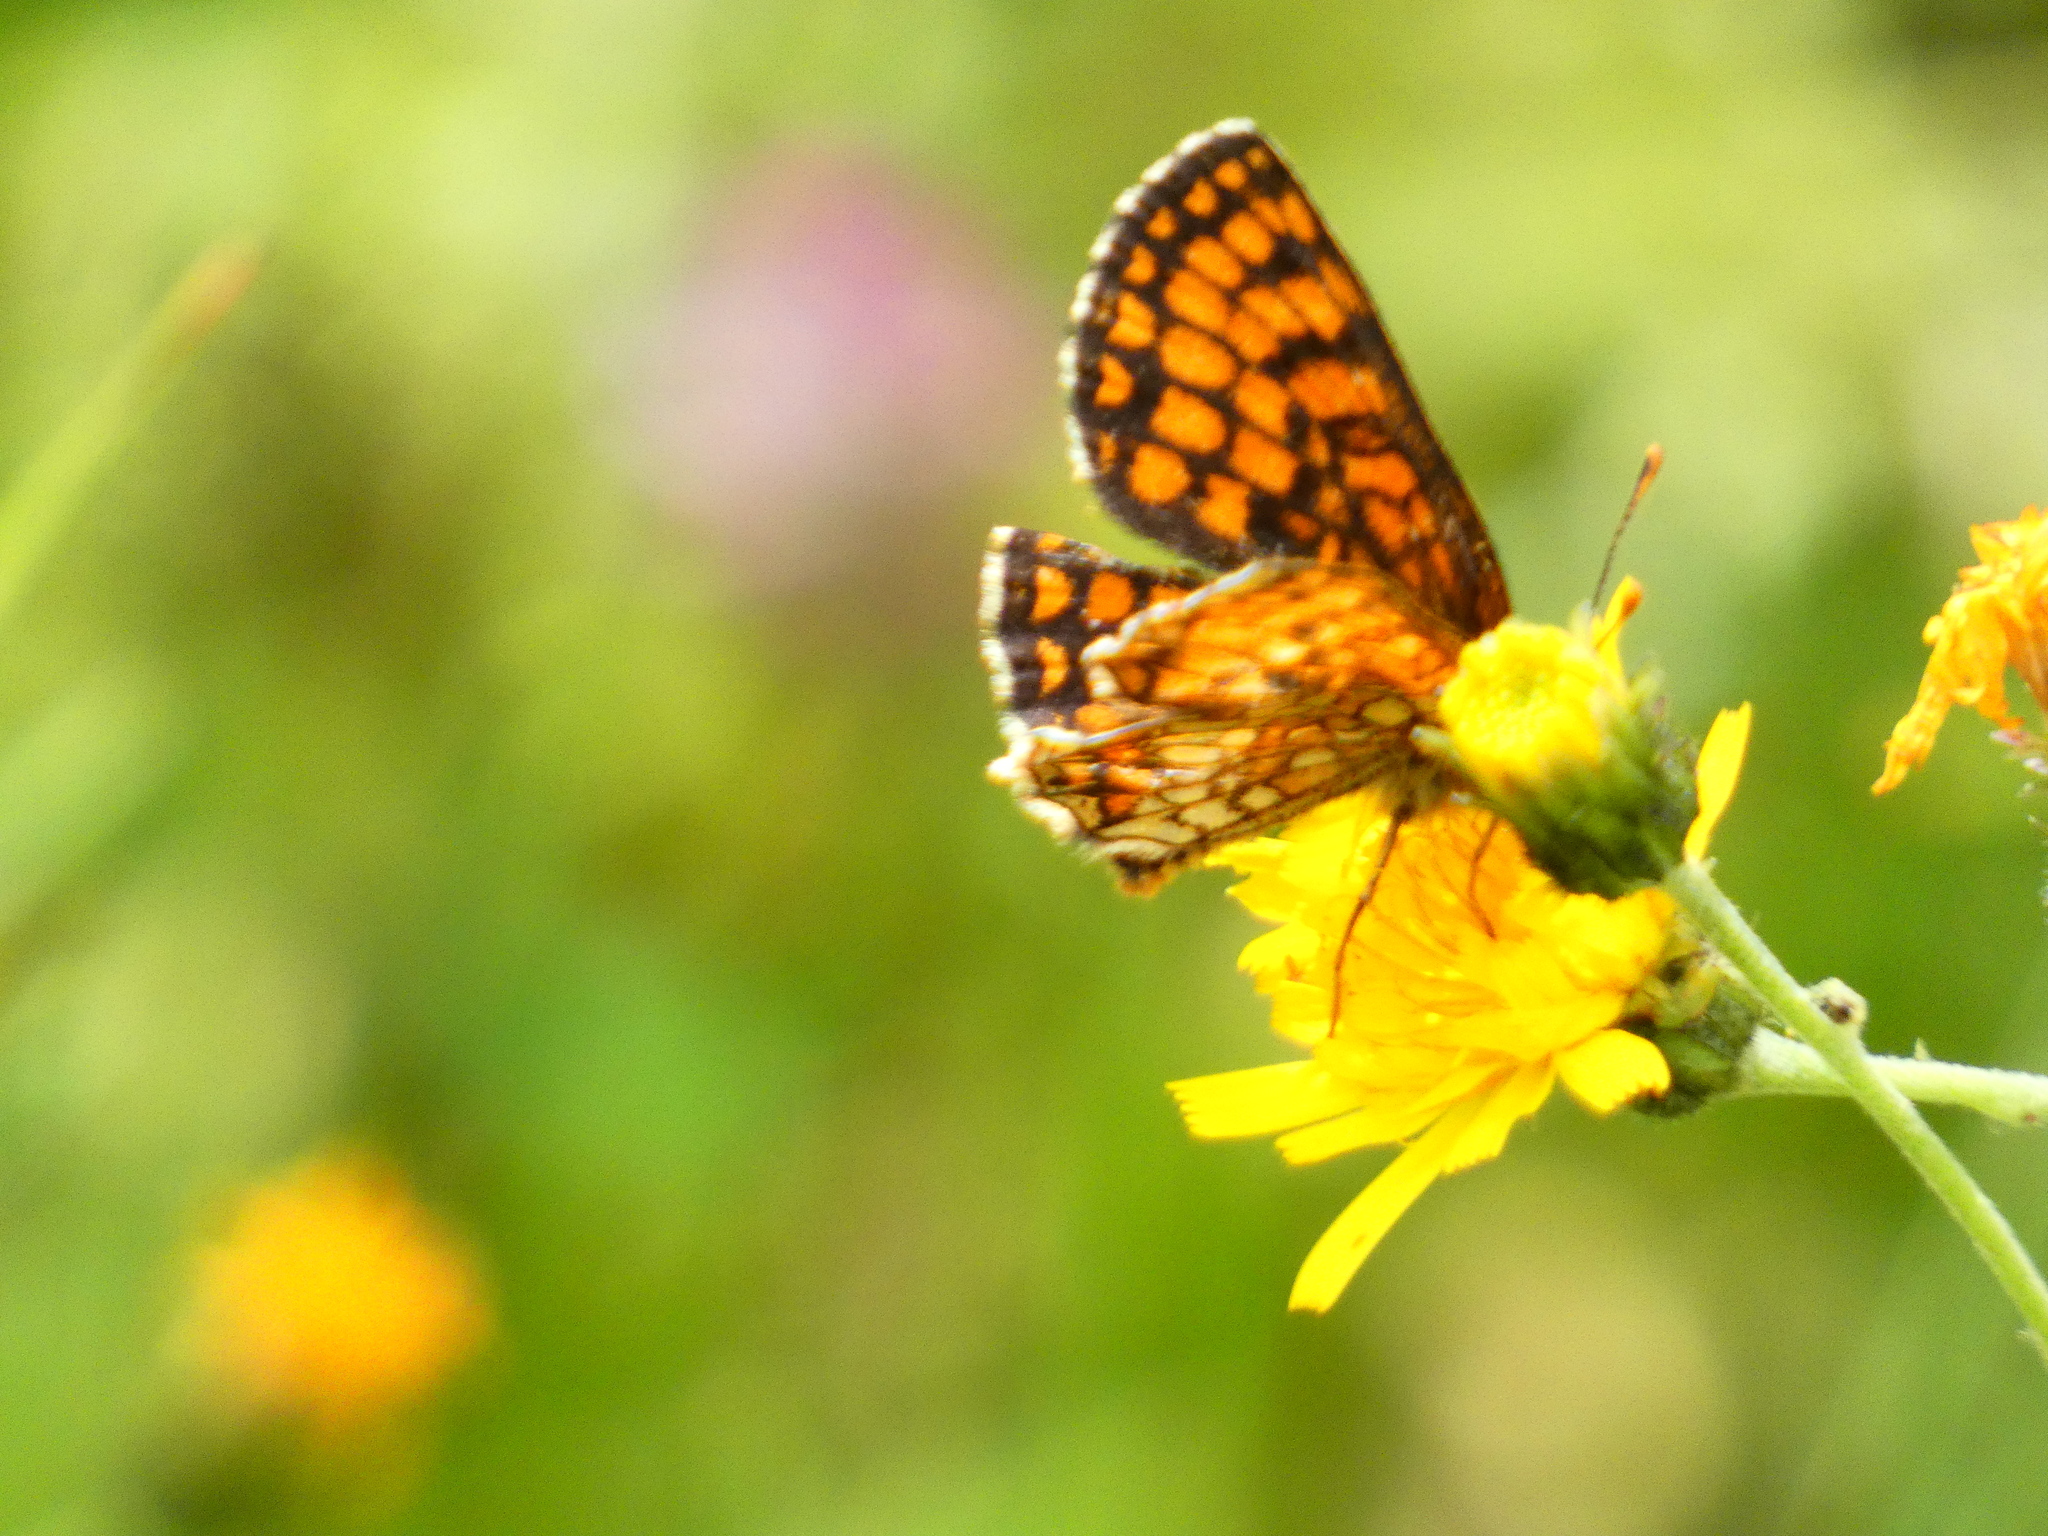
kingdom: Animalia
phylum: Arthropoda
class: Insecta
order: Lepidoptera
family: Nymphalidae
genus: Melitaea
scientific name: Melitaea athalia
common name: Heath fritillary
